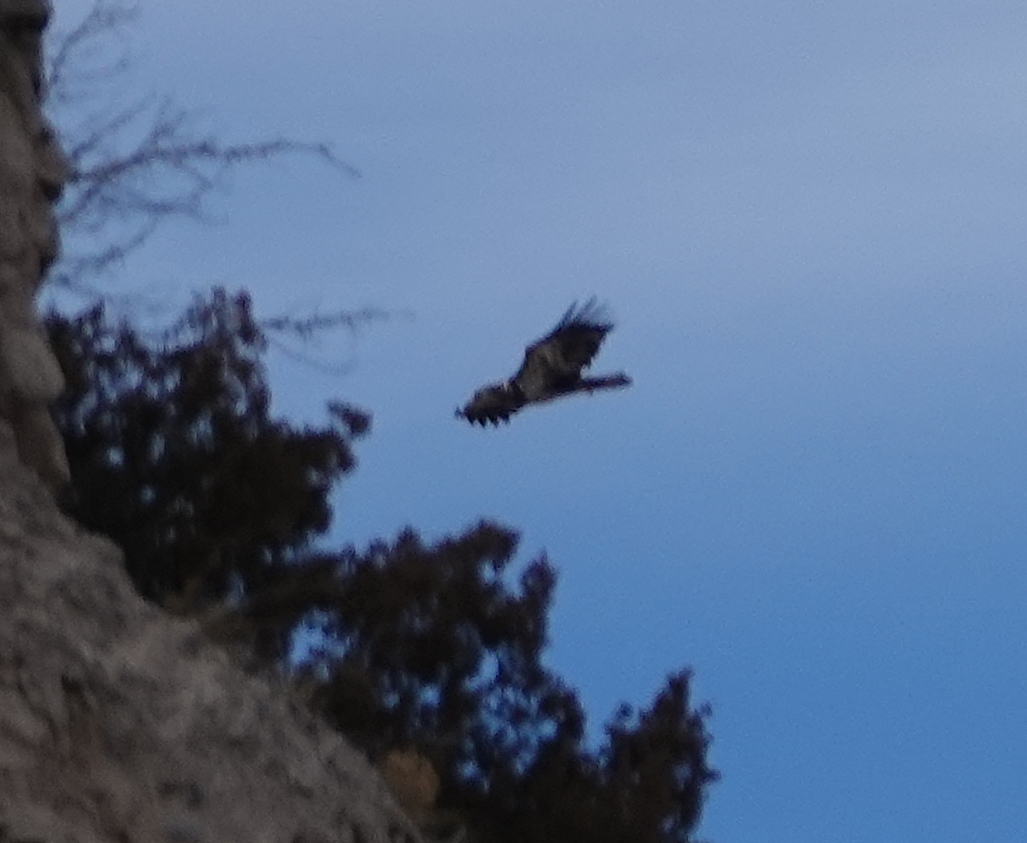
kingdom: Animalia
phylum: Chordata
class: Aves
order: Accipitriformes
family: Accipitridae
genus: Haliaeetus
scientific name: Haliaeetus leucocephalus
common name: Bald eagle
